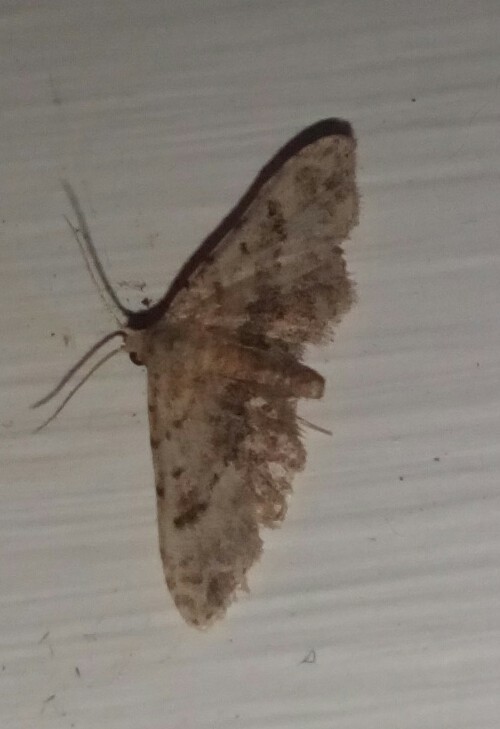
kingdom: Animalia
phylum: Arthropoda
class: Insecta
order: Lepidoptera
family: Erebidae
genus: Sigela
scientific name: Sigela brauneata
